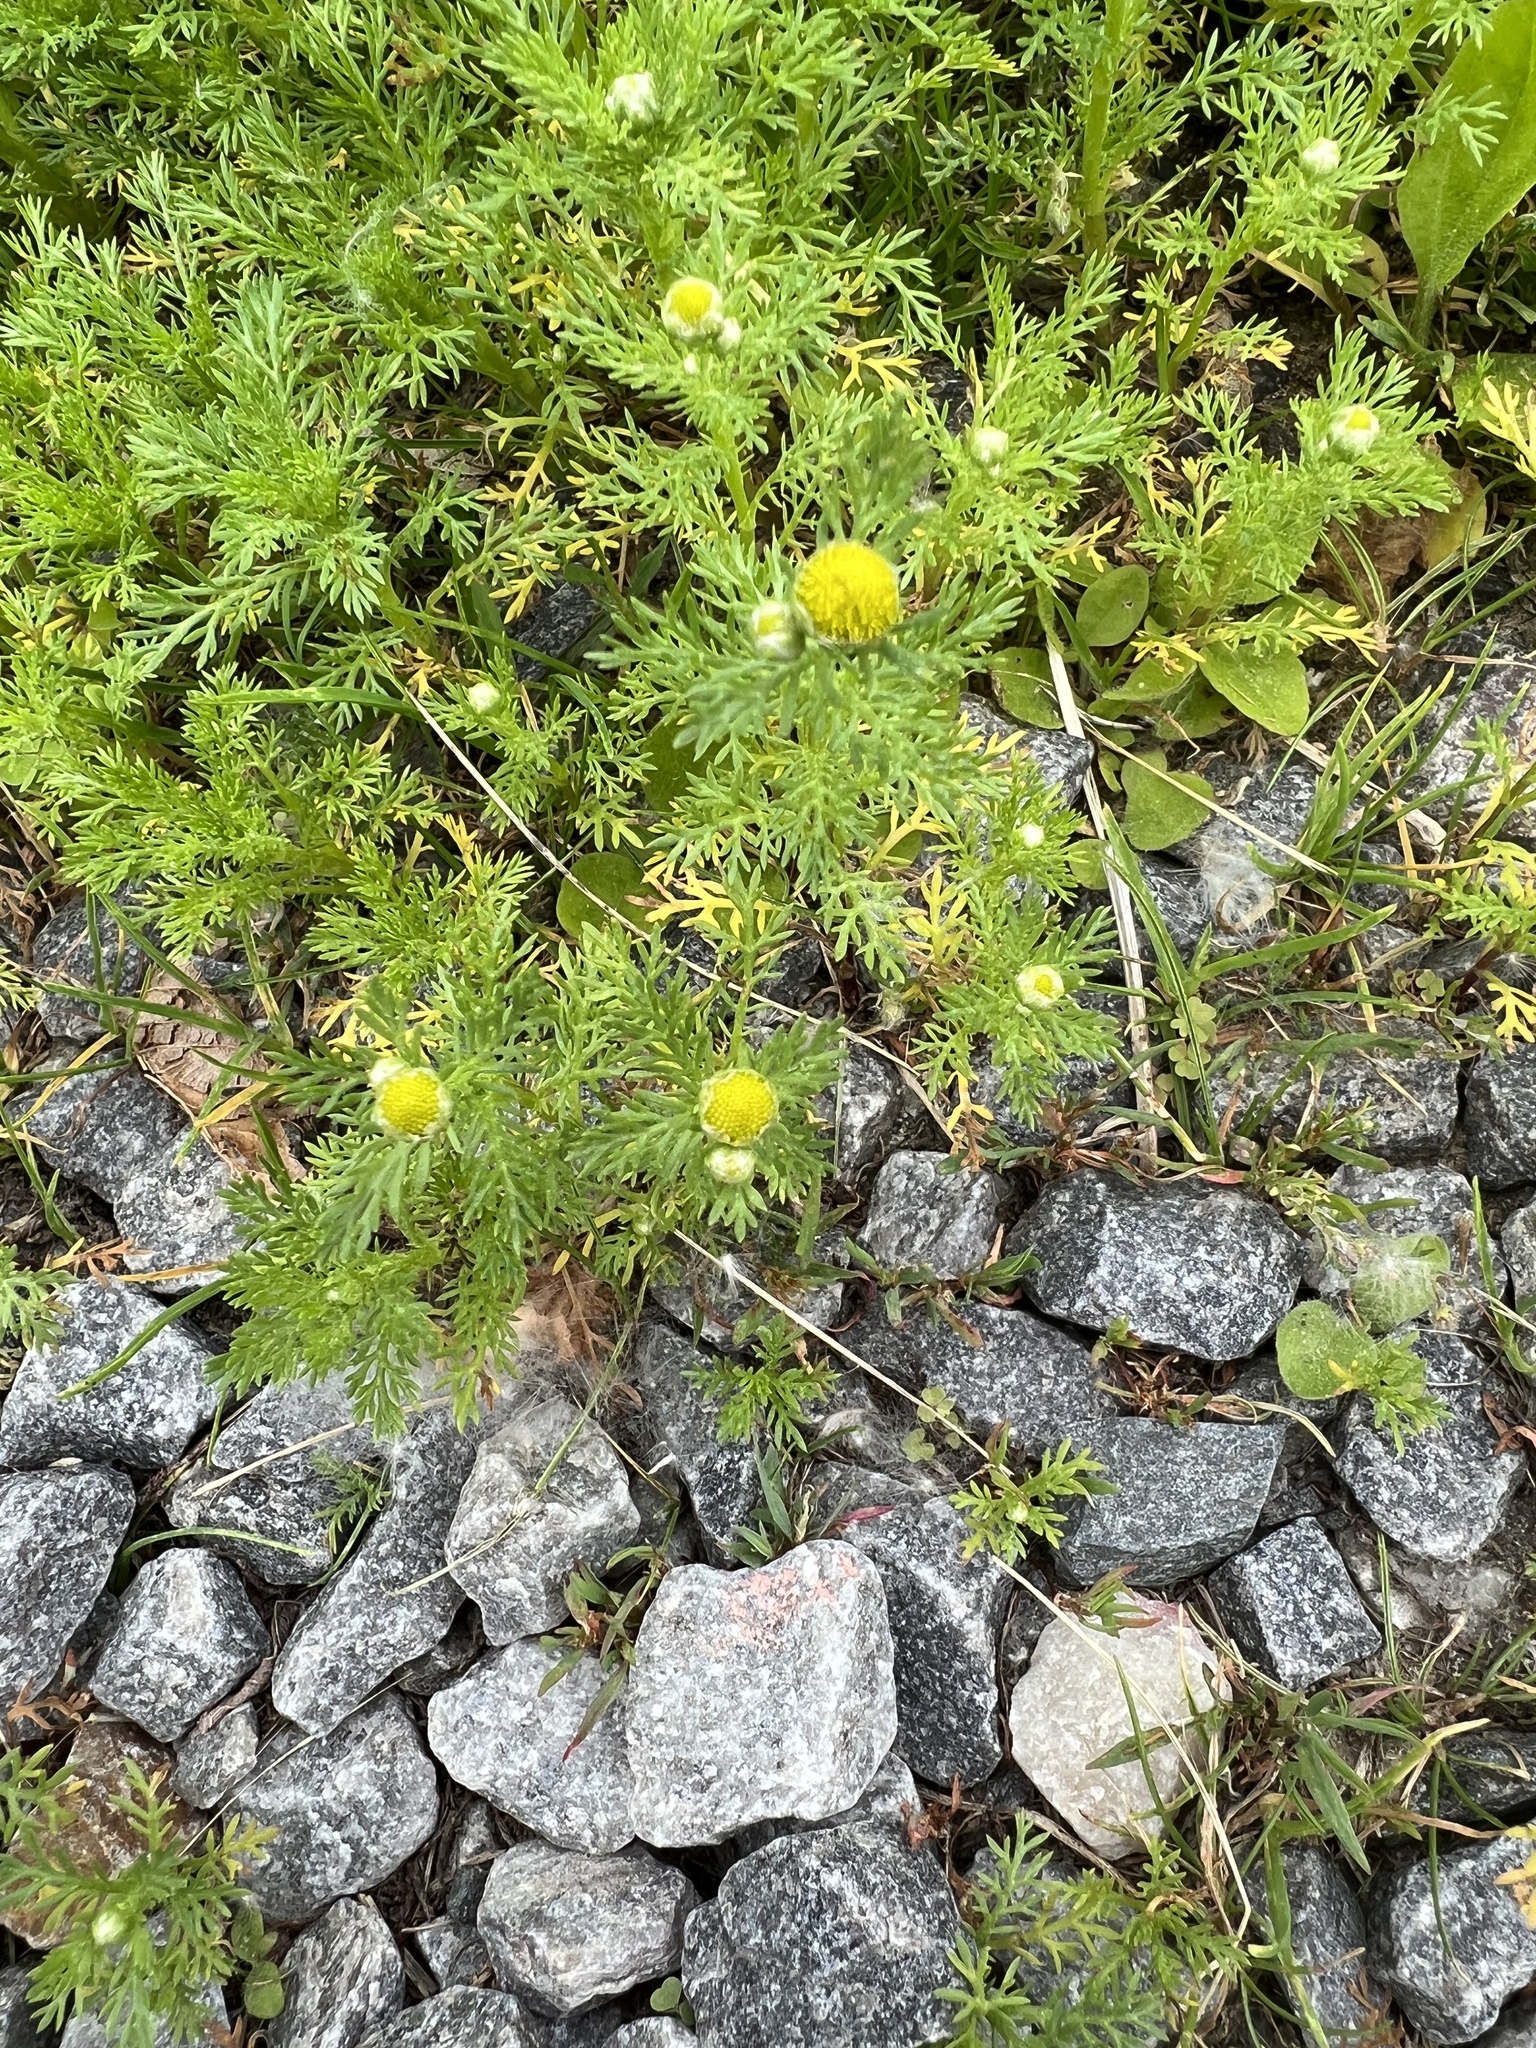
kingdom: Plantae
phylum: Tracheophyta
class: Magnoliopsida
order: Asterales
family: Asteraceae
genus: Matricaria
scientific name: Matricaria discoidea
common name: Disc mayweed
